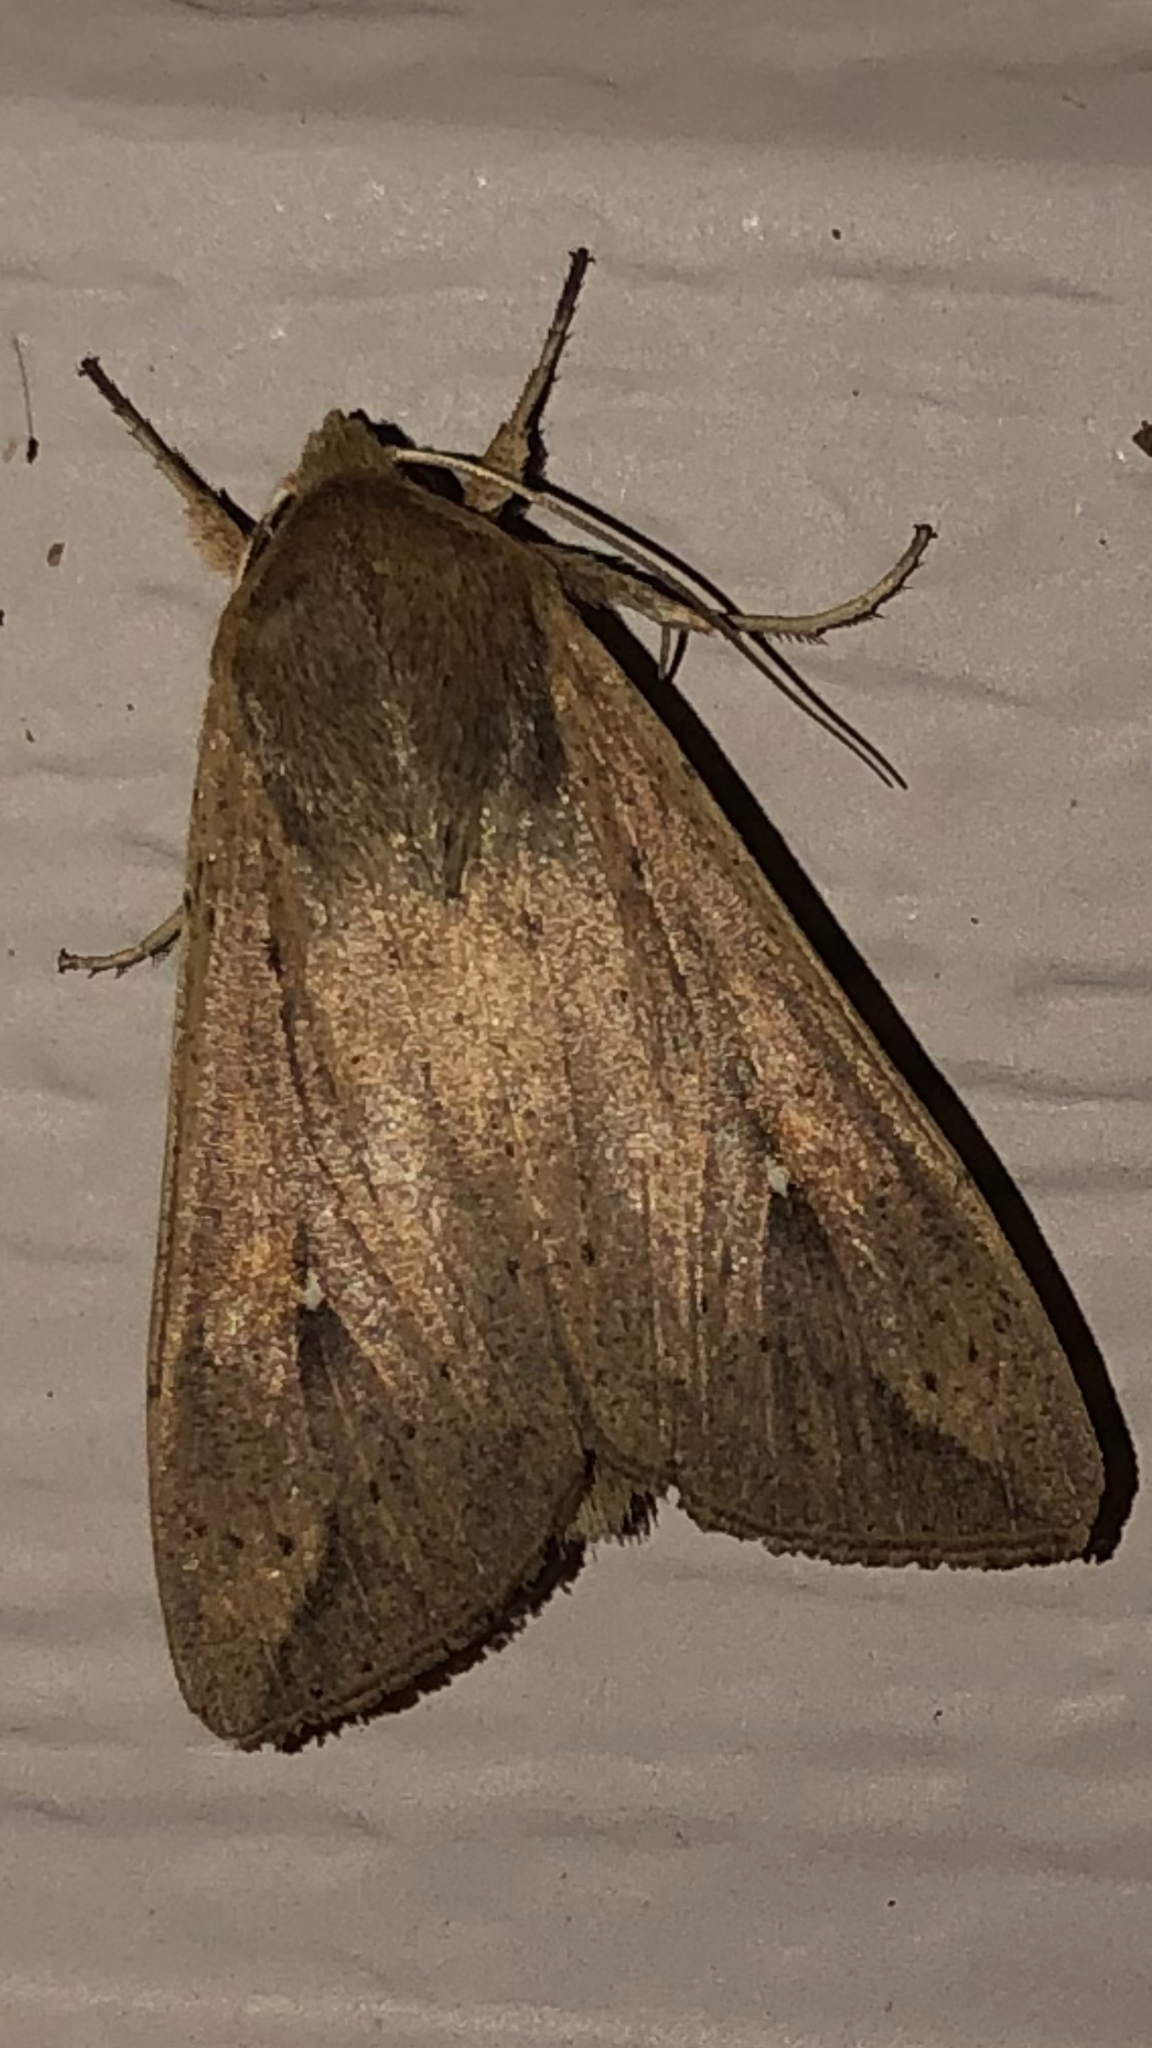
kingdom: Animalia
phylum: Arthropoda
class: Insecta
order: Lepidoptera
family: Noctuidae
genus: Mythimna
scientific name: Mythimna unipuncta
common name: White-speck
